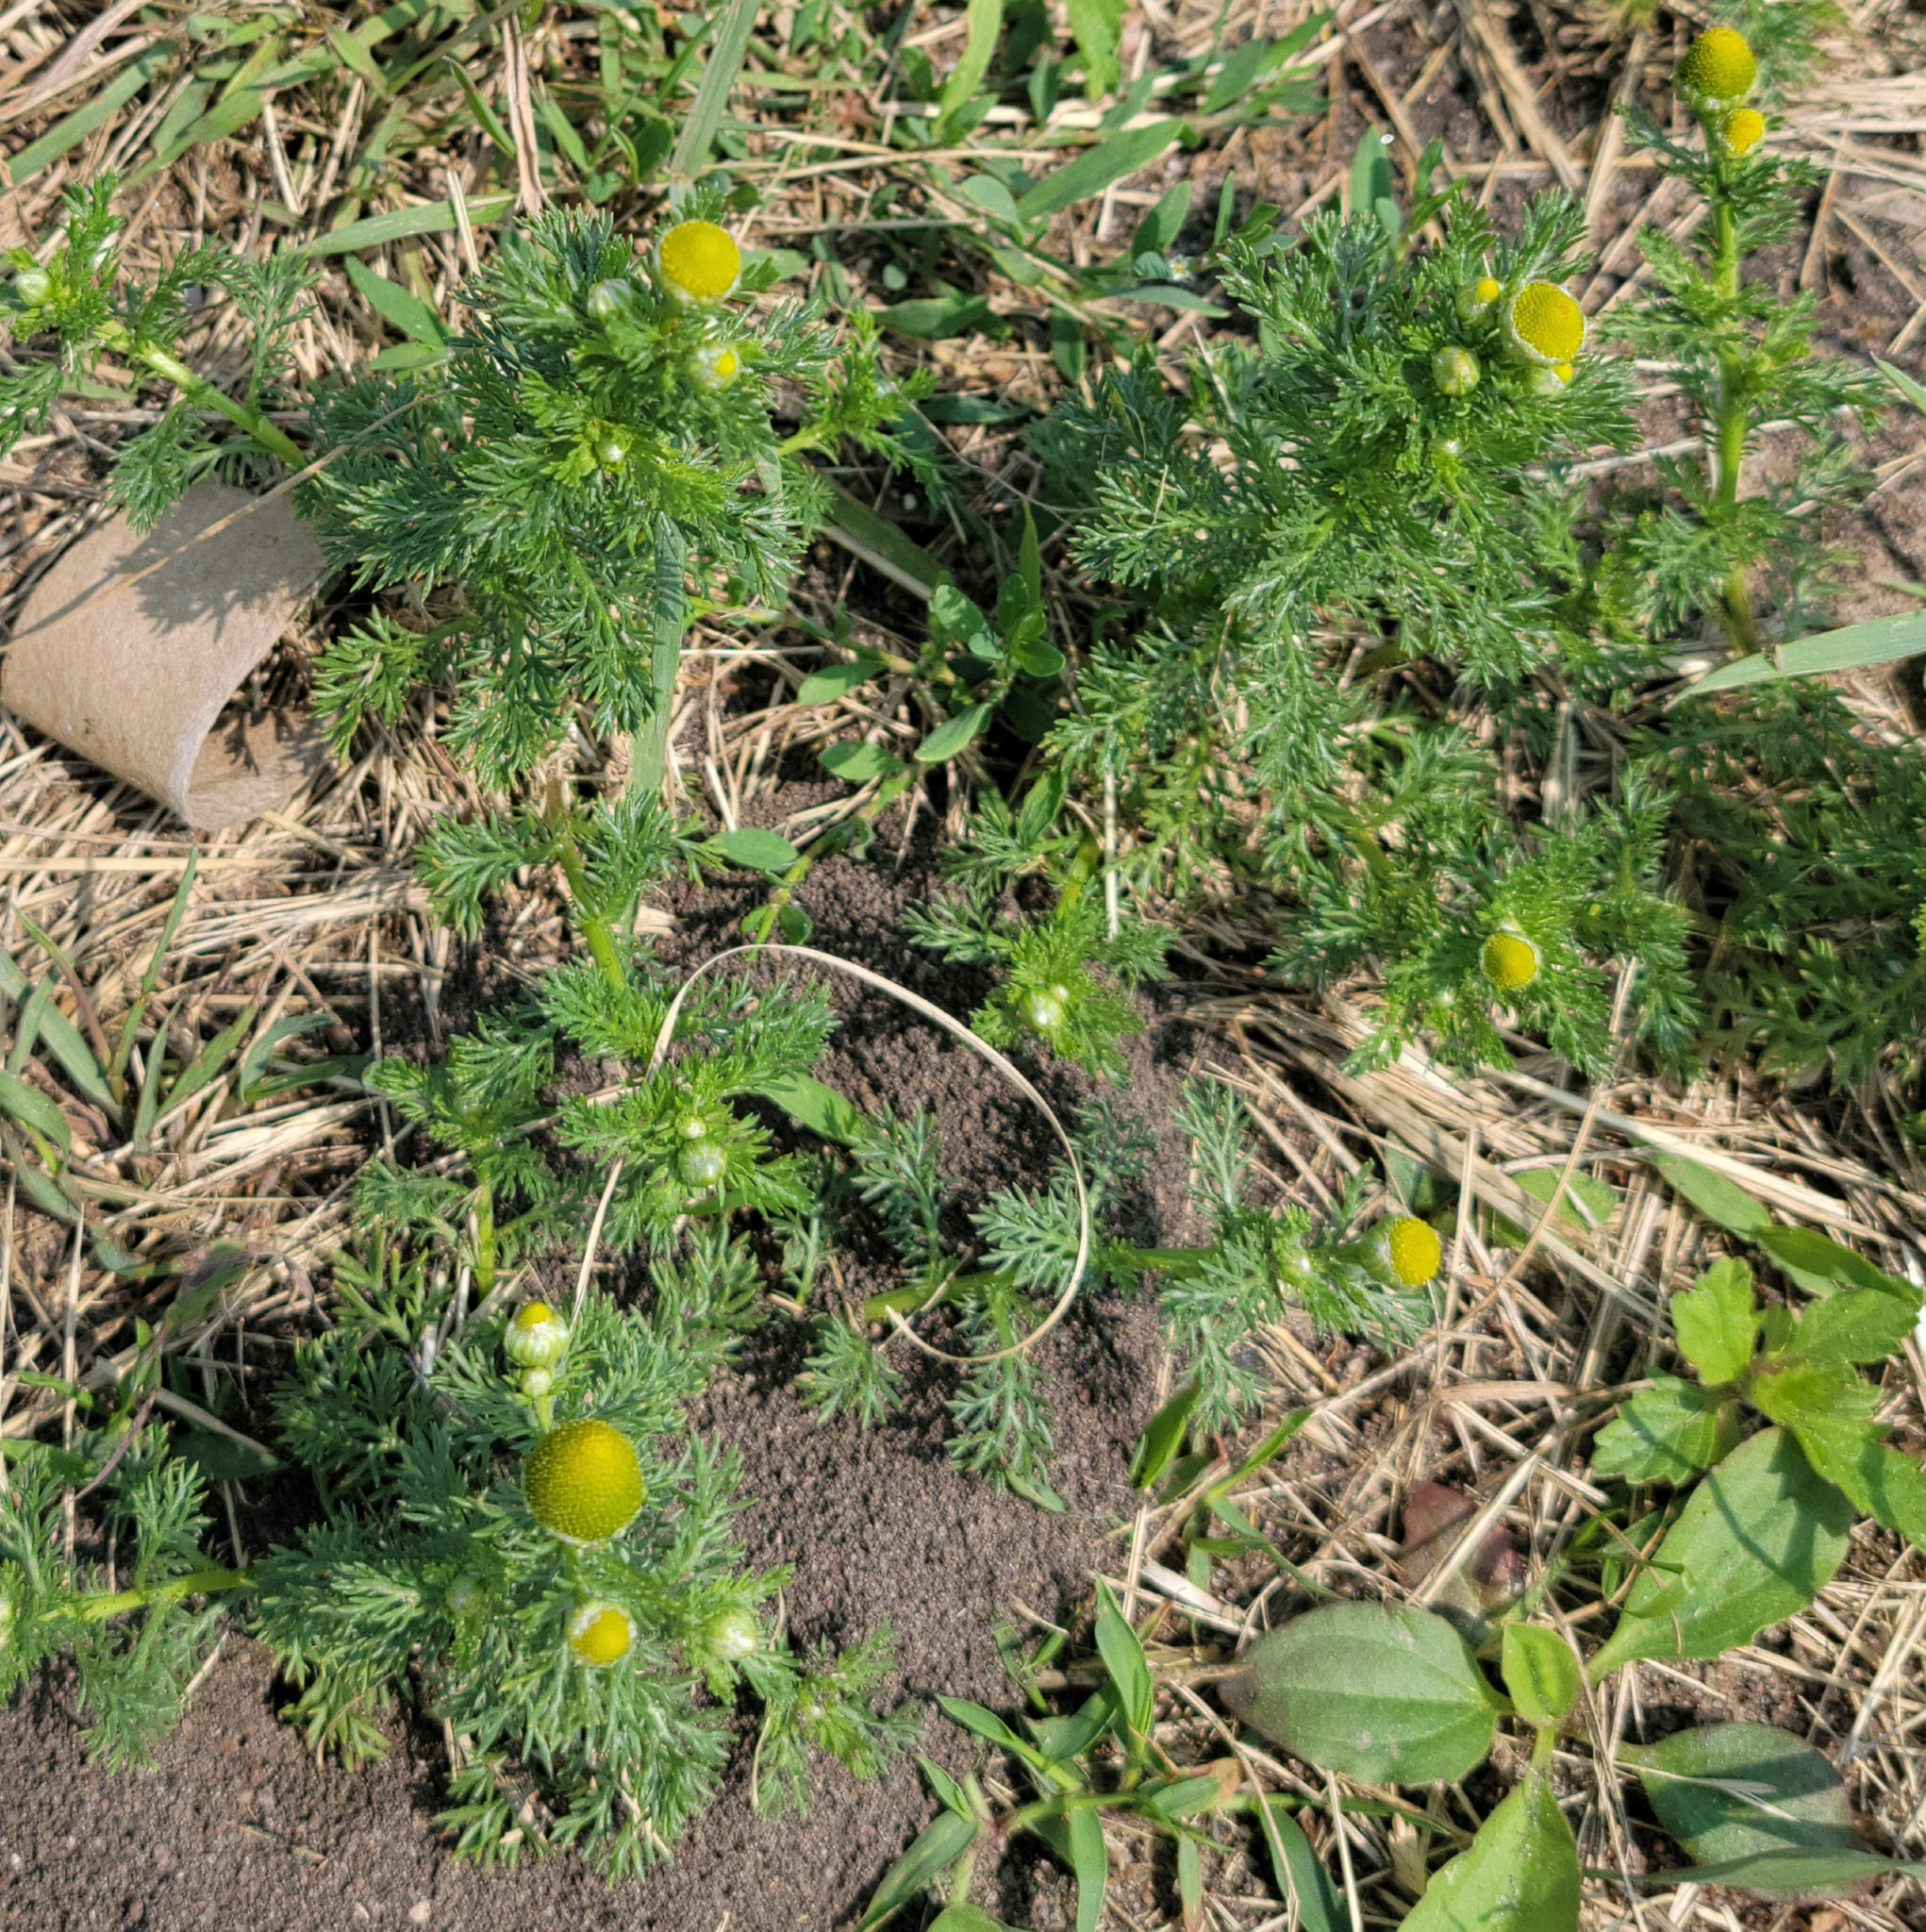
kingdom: Plantae
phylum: Tracheophyta
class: Magnoliopsida
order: Asterales
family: Asteraceae
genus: Matricaria
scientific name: Matricaria discoidea
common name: Disc mayweed
